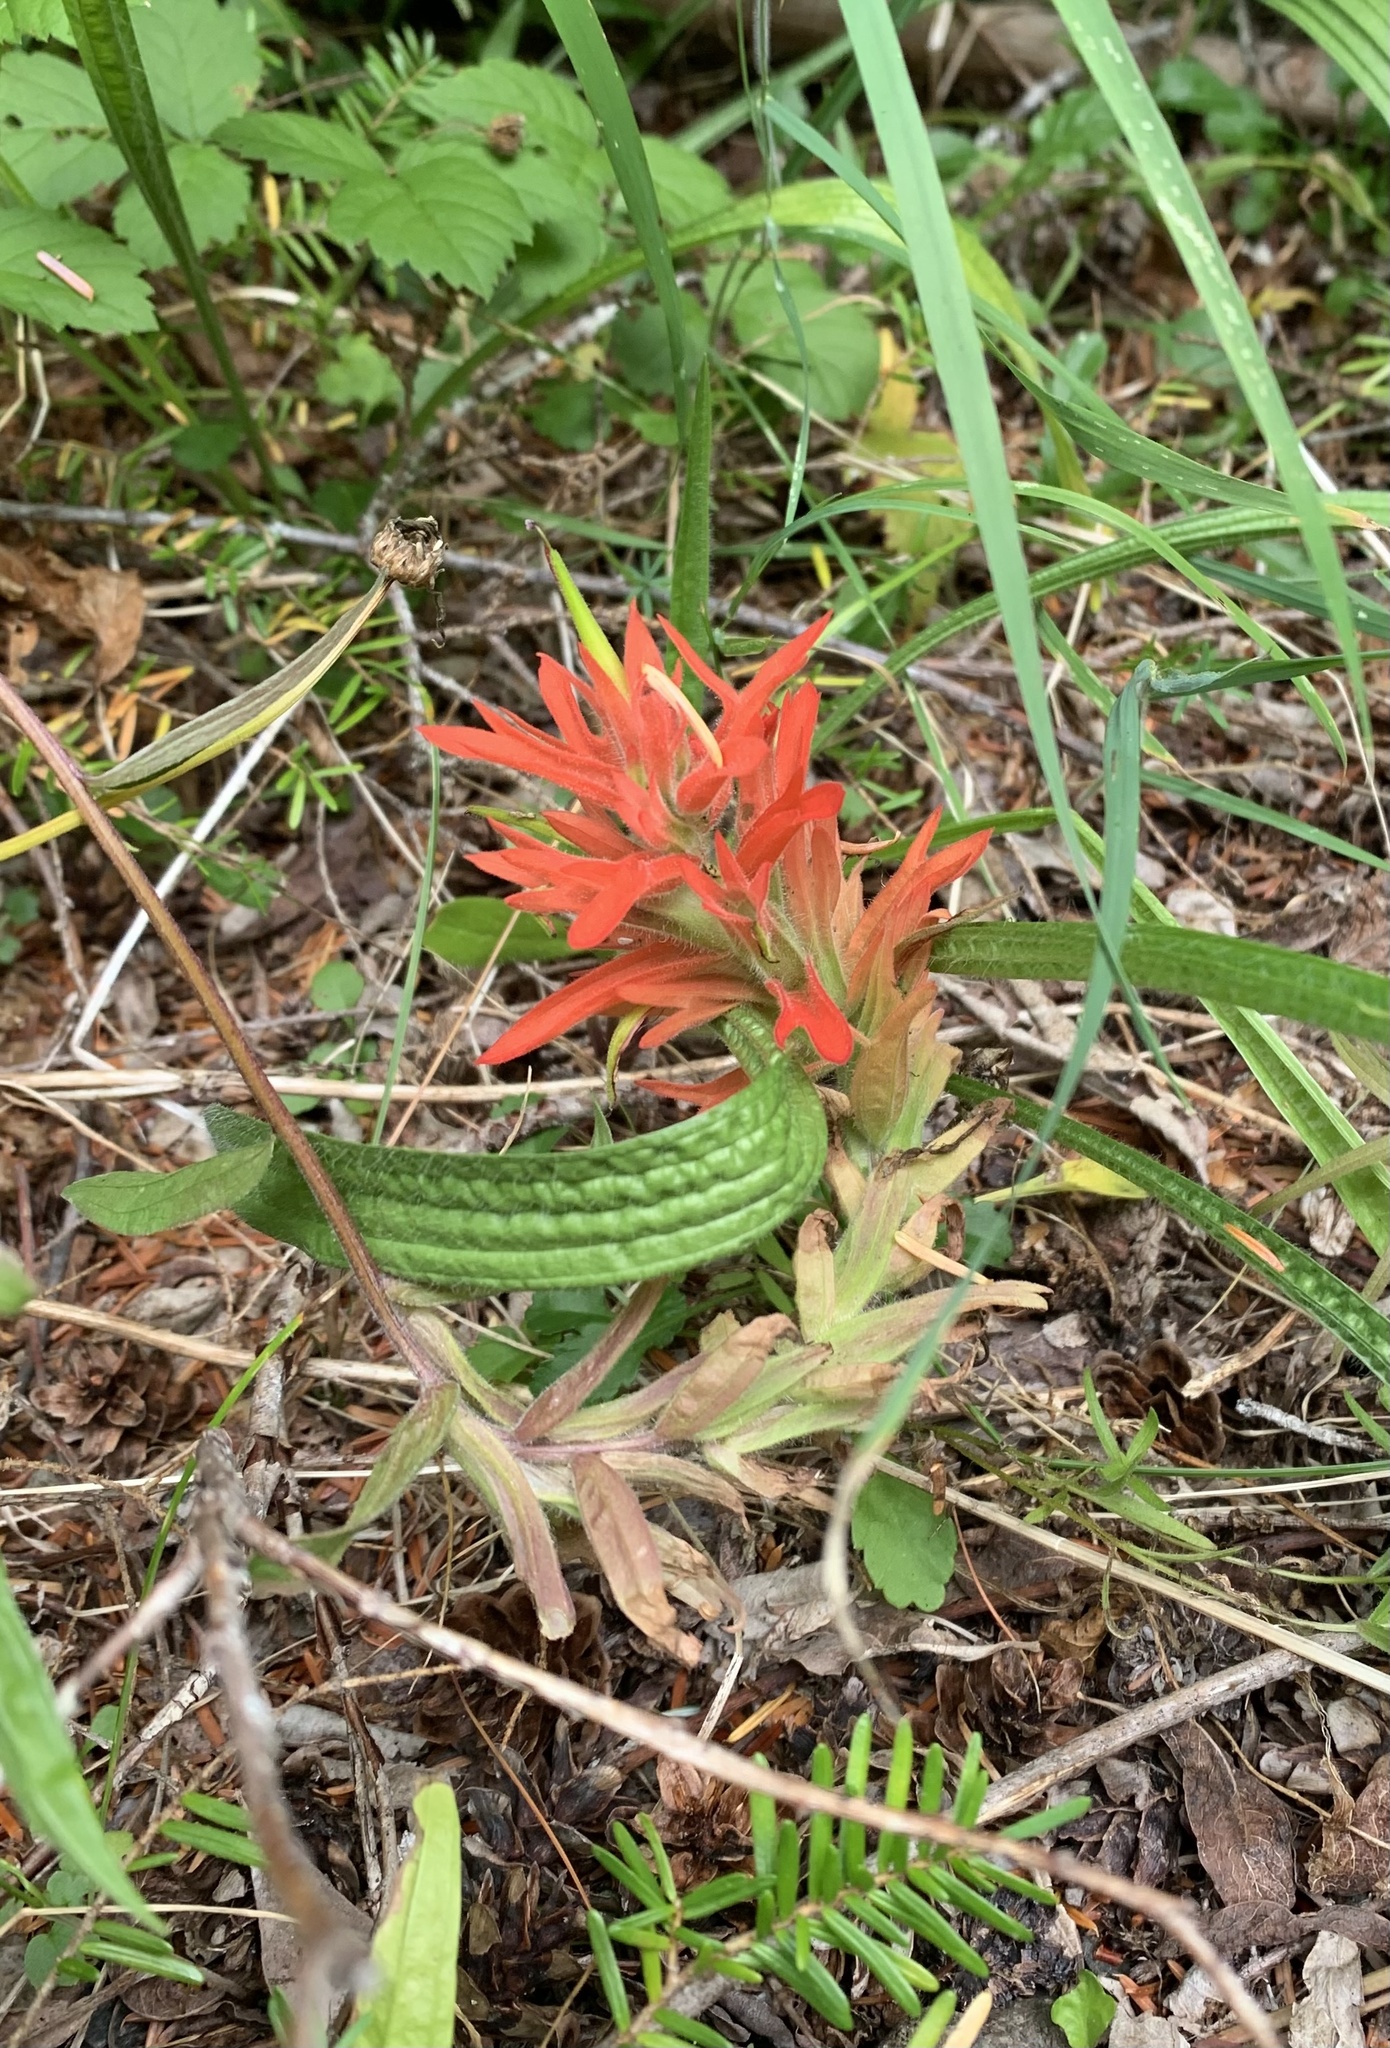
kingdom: Plantae
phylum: Tracheophyta
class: Magnoliopsida
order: Lamiales
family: Orobanchaceae
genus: Castilleja
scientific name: Castilleja miniata
